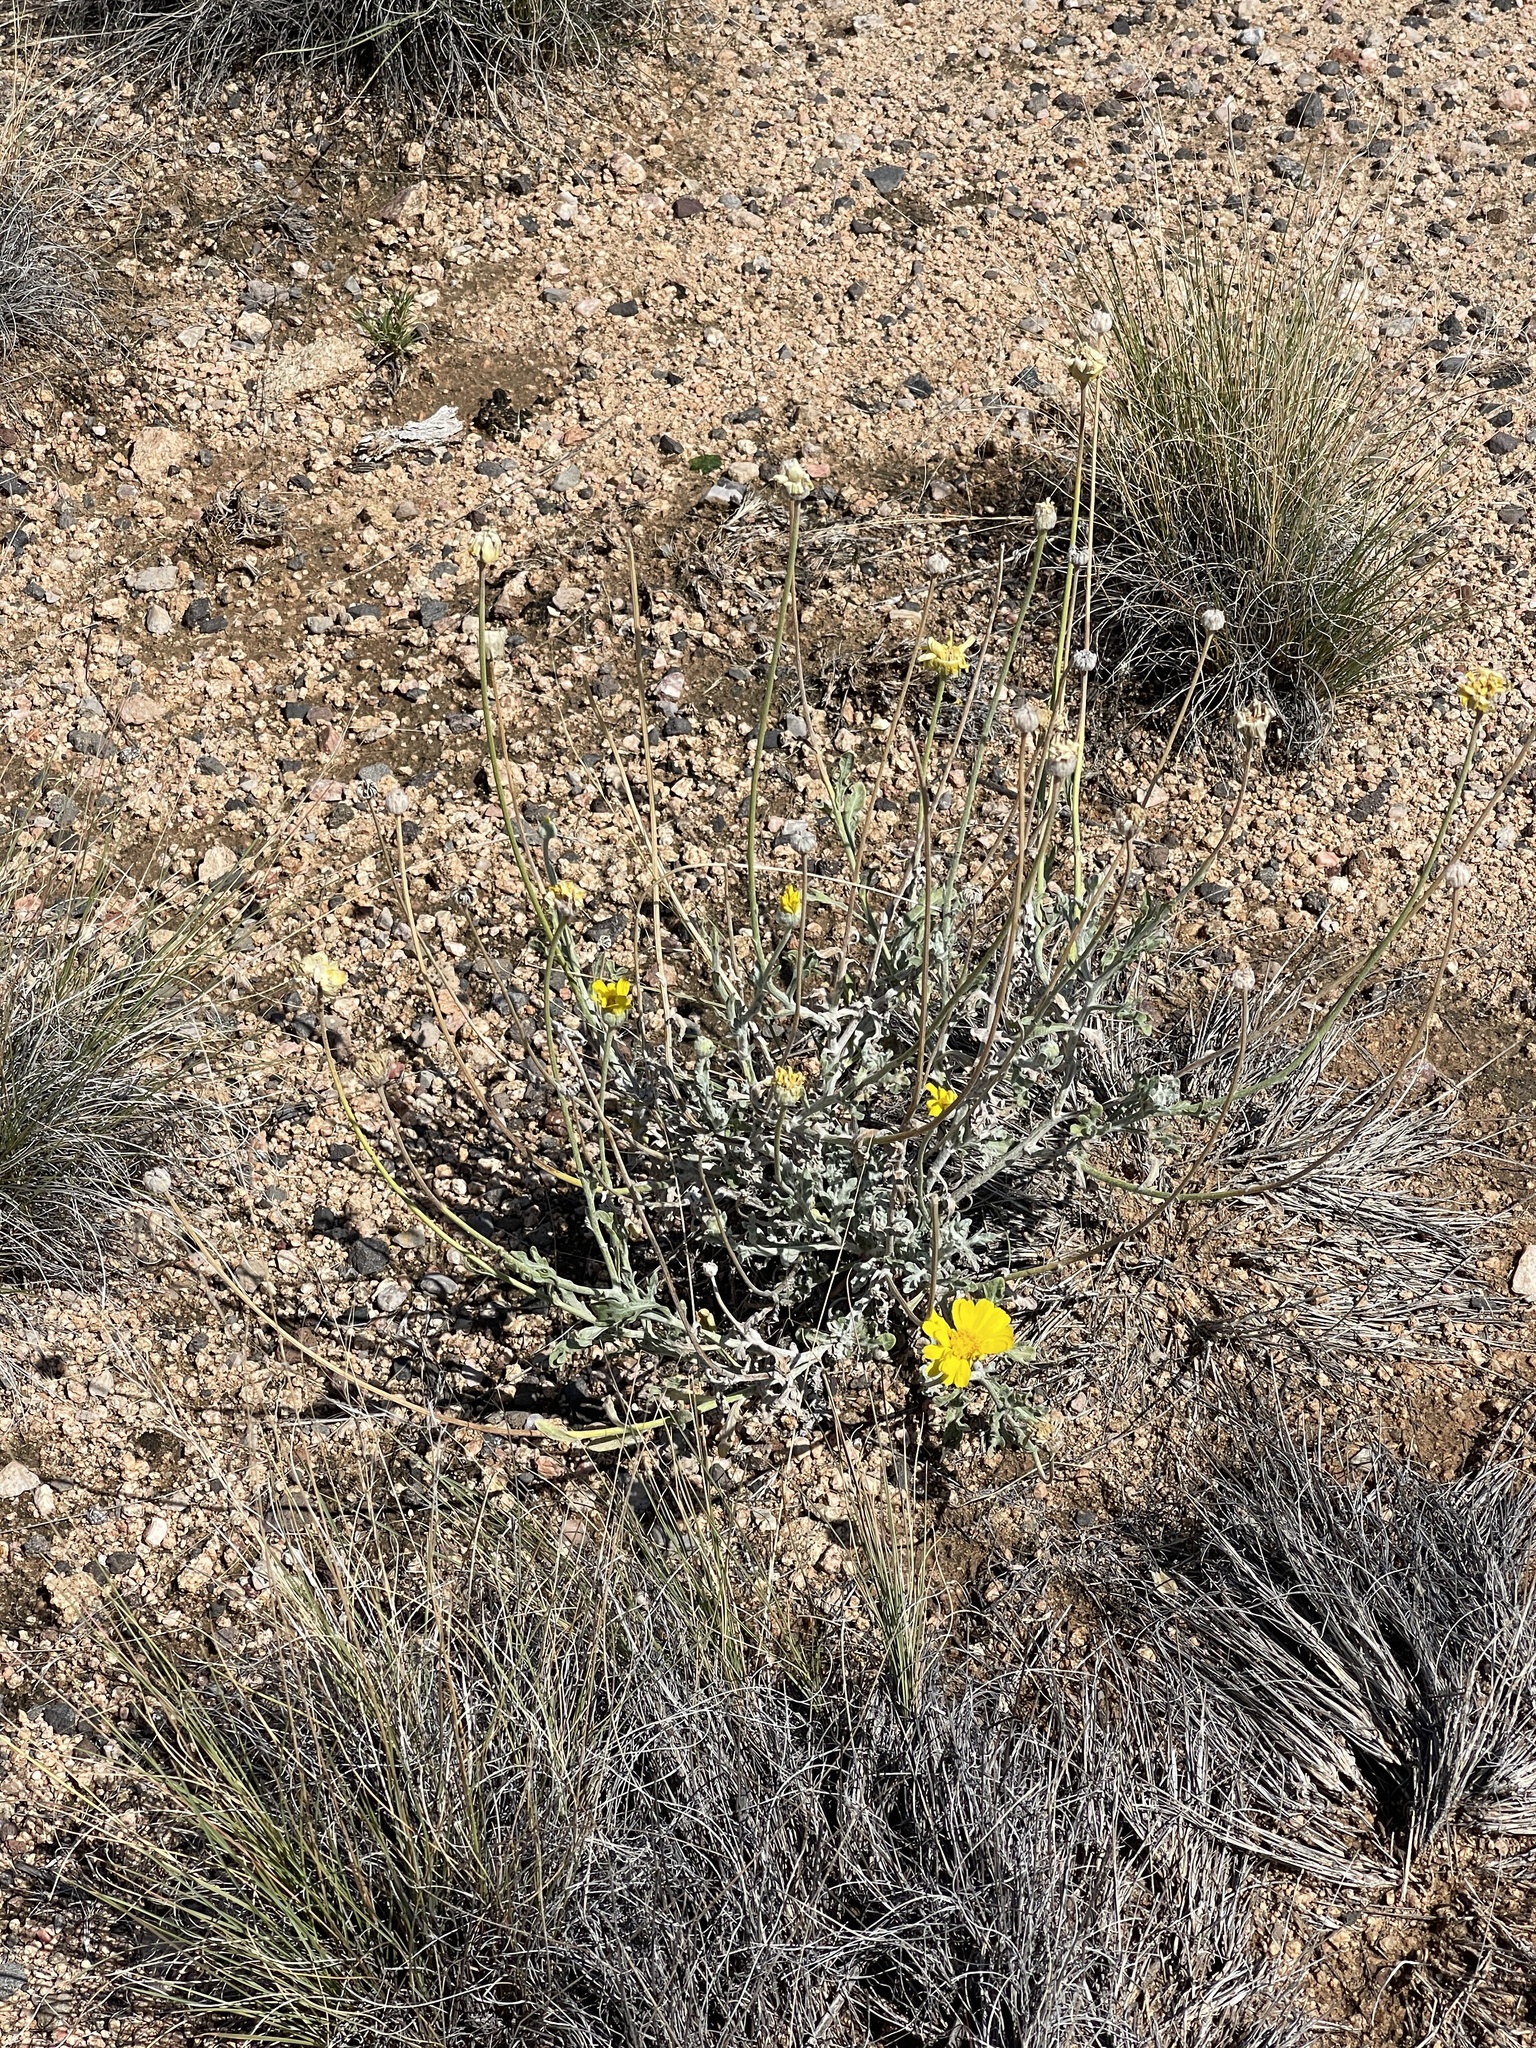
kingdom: Plantae
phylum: Tracheophyta
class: Magnoliopsida
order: Asterales
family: Asteraceae
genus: Baileya
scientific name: Baileya multiradiata
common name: Desert-marigold
